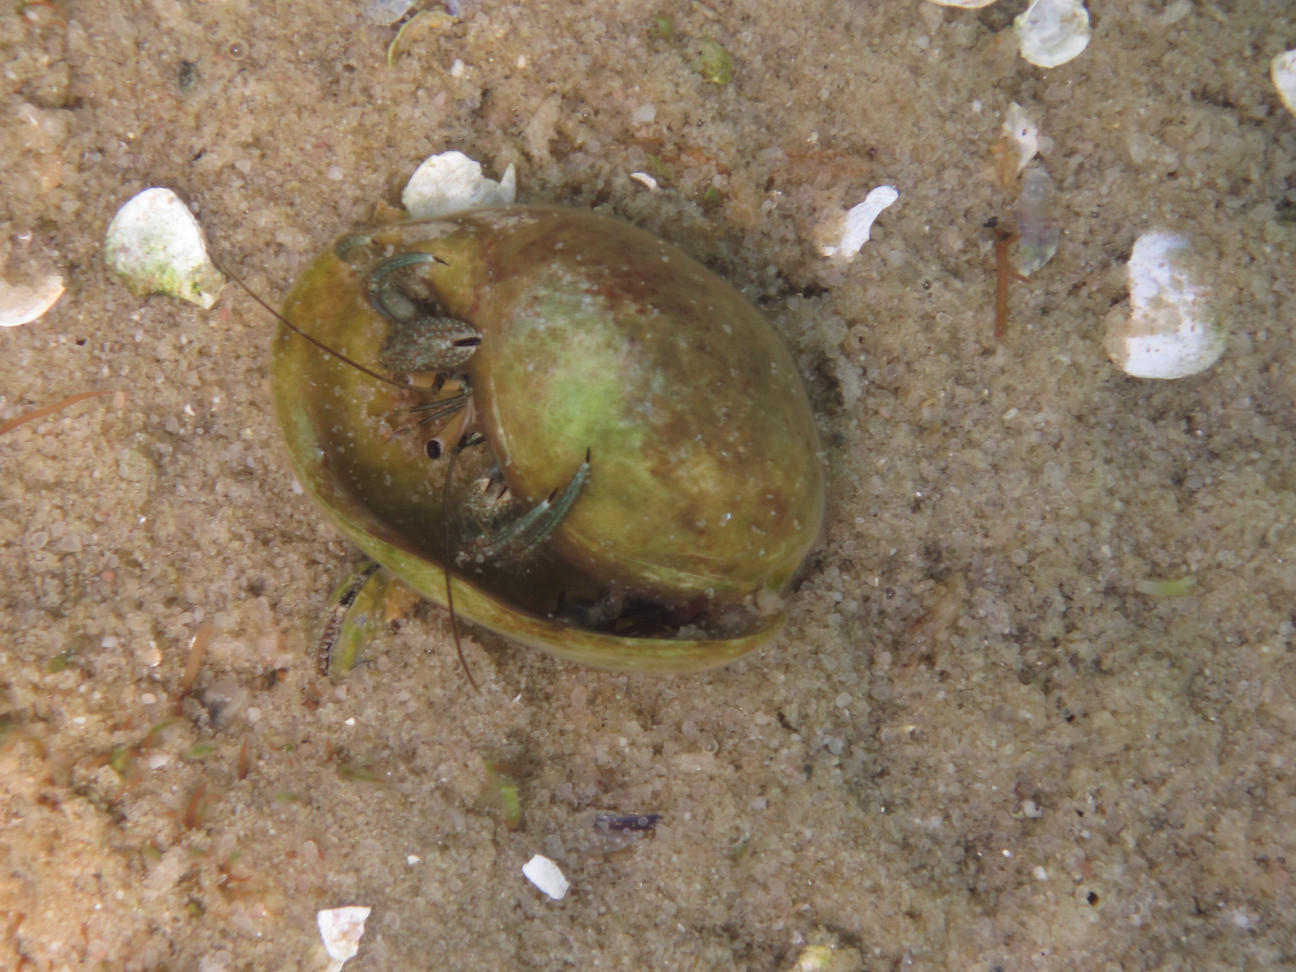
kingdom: Animalia
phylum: Arthropoda
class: Malacostraca
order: Decapoda
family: Diogenidae
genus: Clibanarius
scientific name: Clibanarius longitarsus
